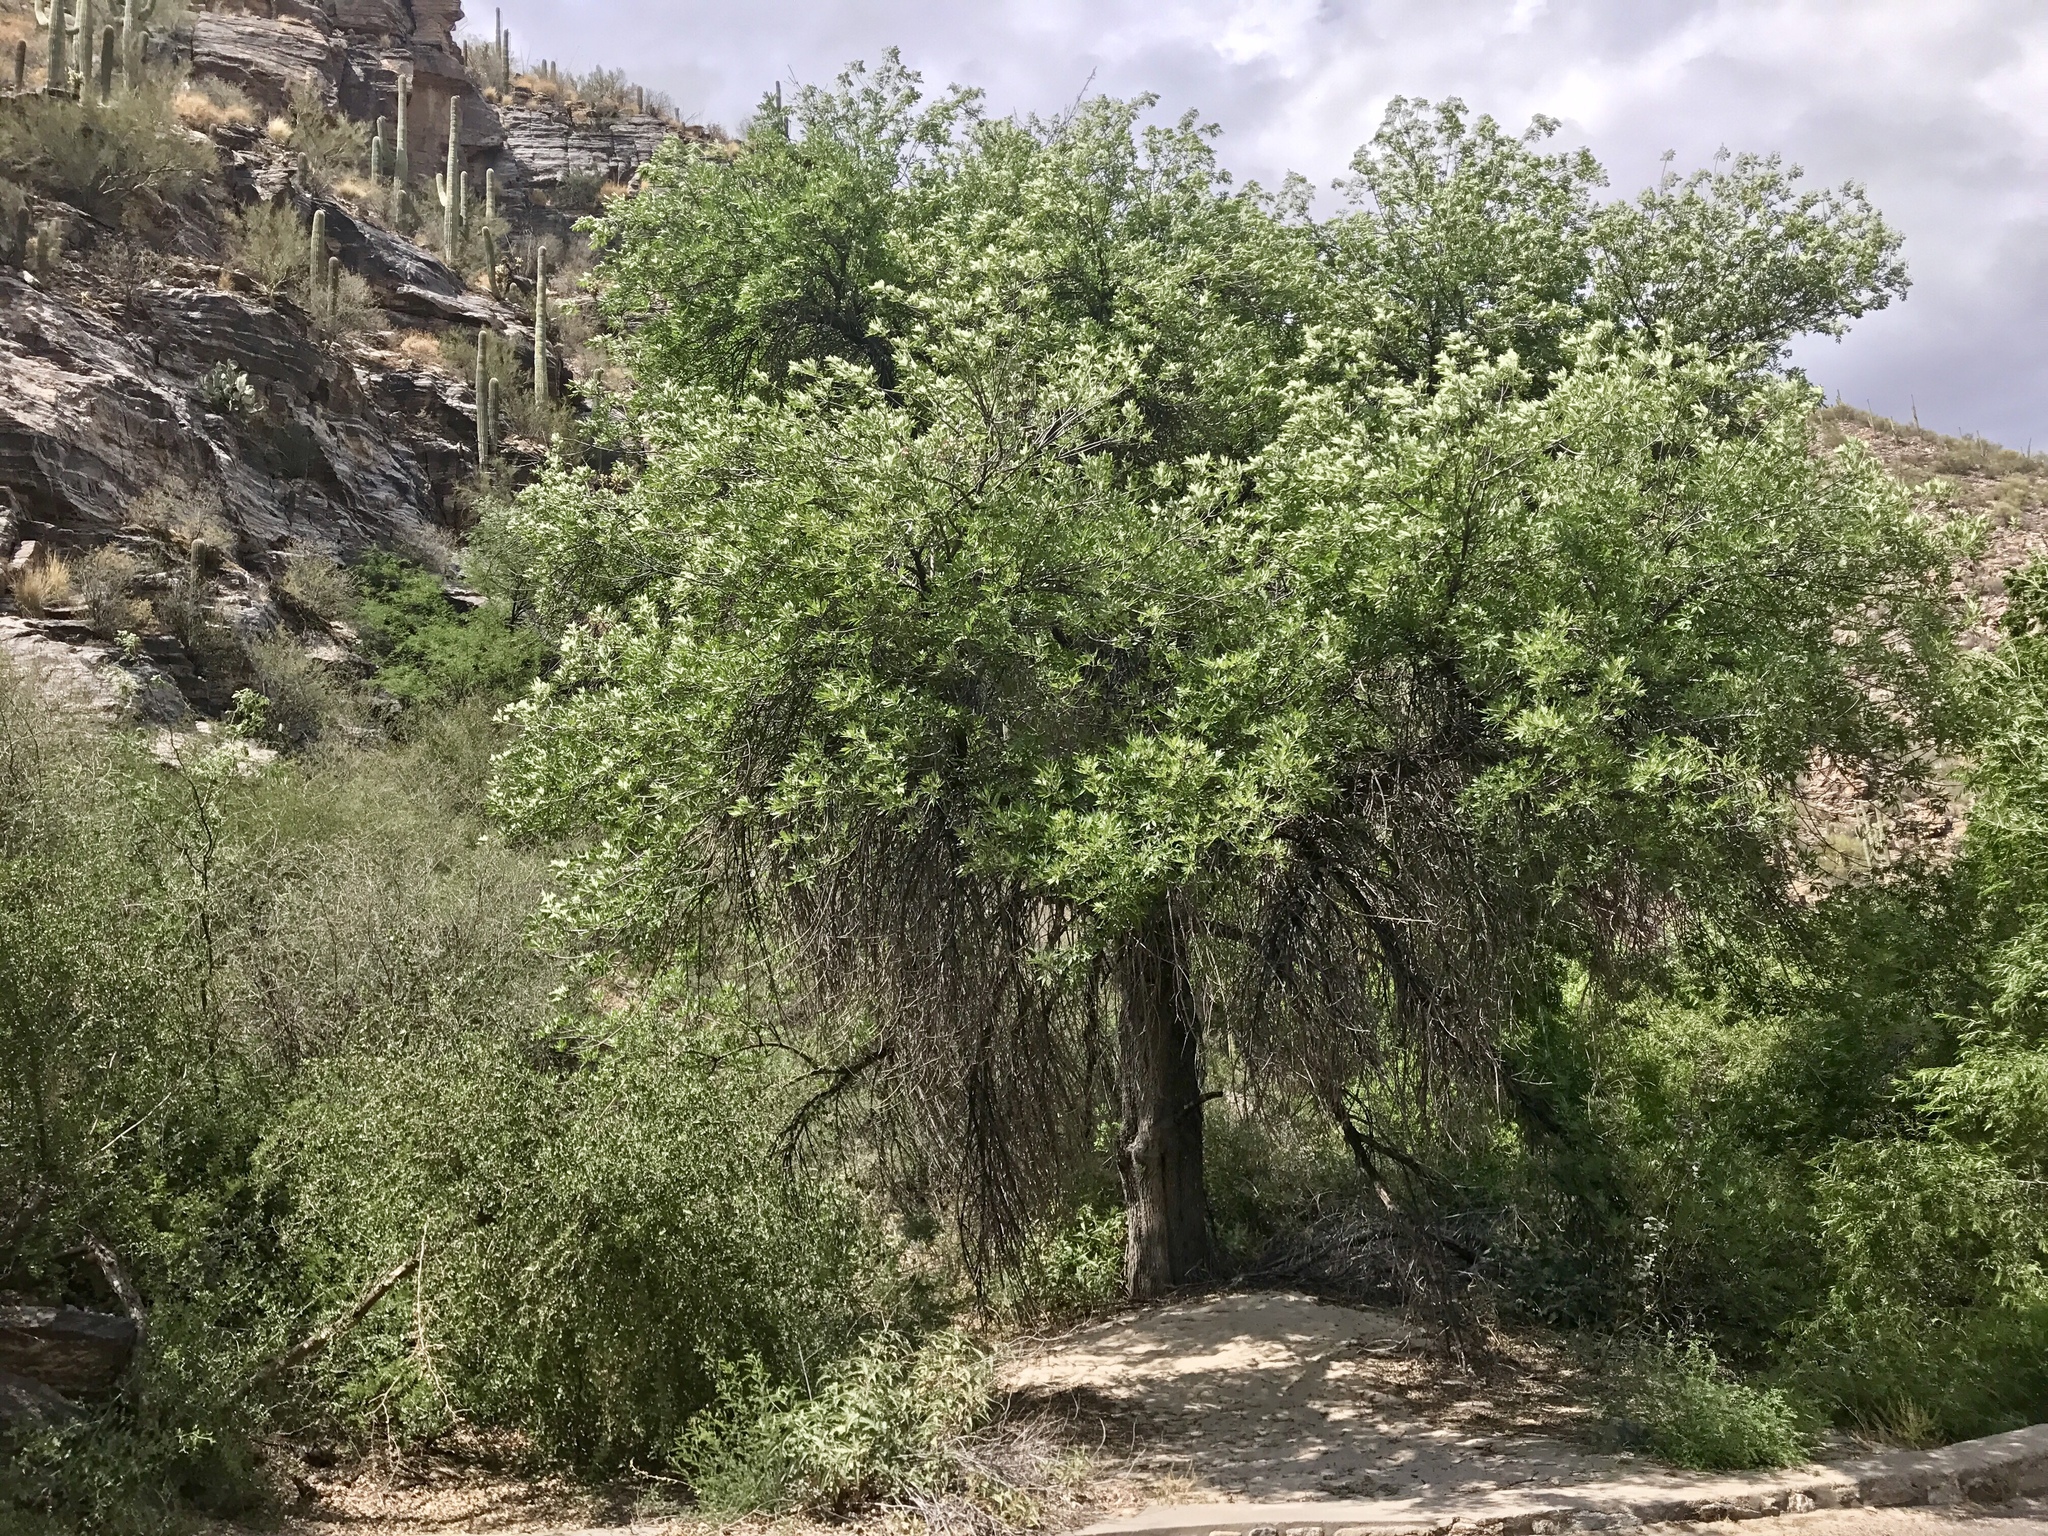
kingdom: Plantae
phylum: Tracheophyta
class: Magnoliopsida
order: Lamiales
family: Oleaceae
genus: Fraxinus
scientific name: Fraxinus velutina
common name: Arizon ash
